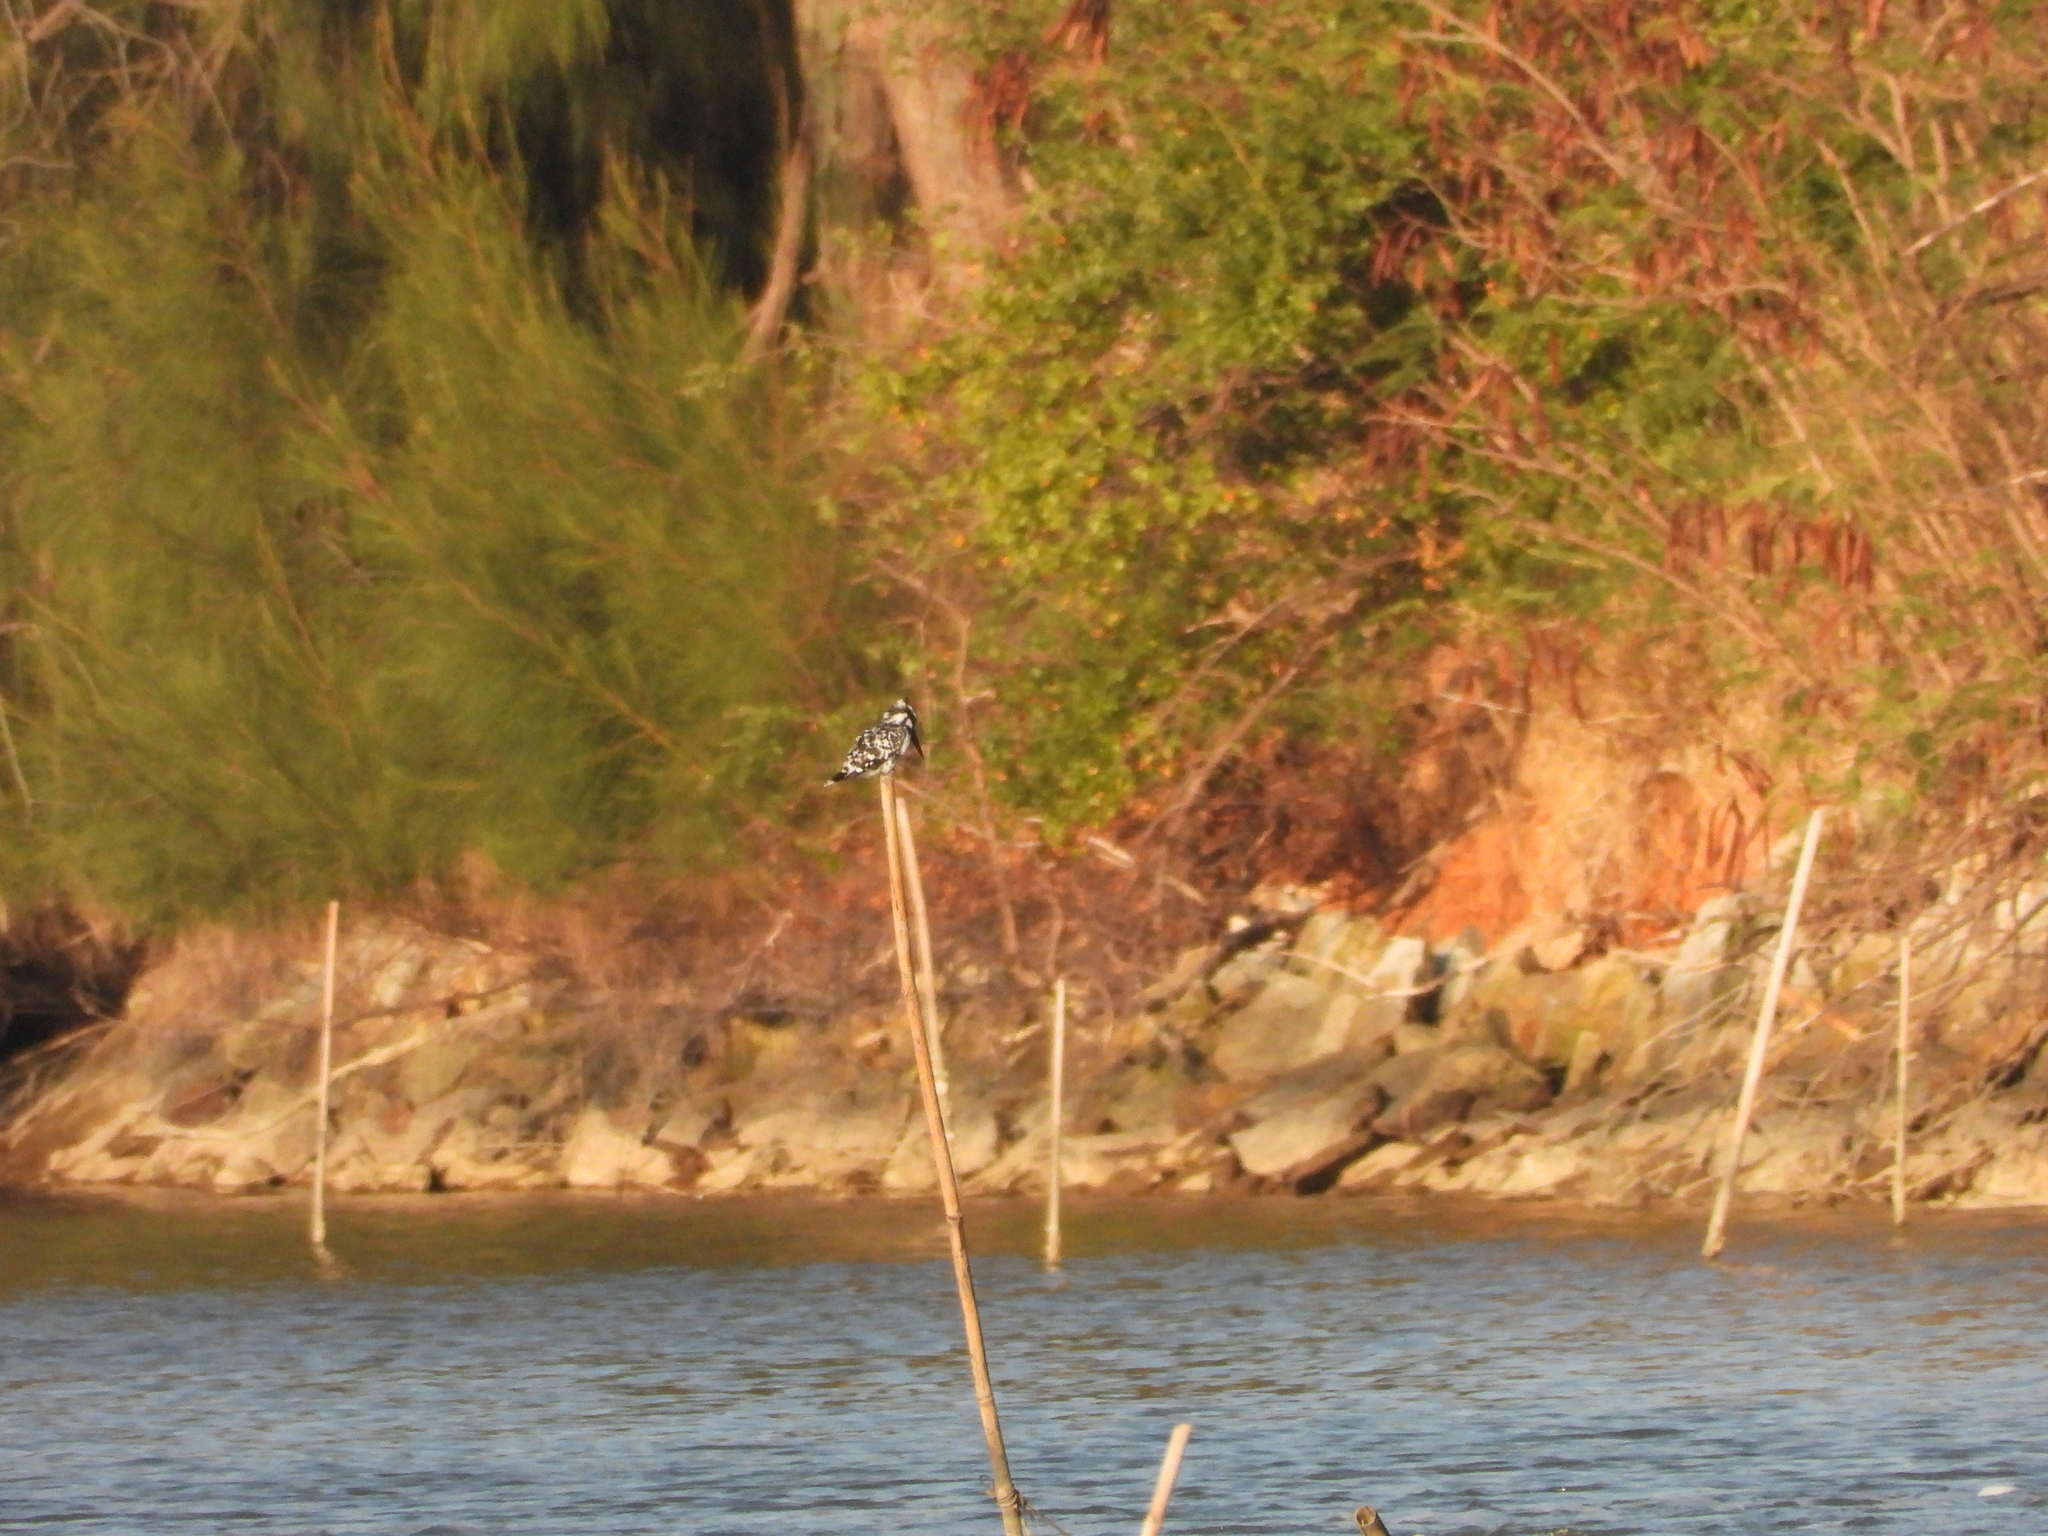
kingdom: Animalia
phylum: Chordata
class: Aves
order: Coraciiformes
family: Alcedinidae
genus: Ceryle
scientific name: Ceryle rudis
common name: Pied kingfisher
